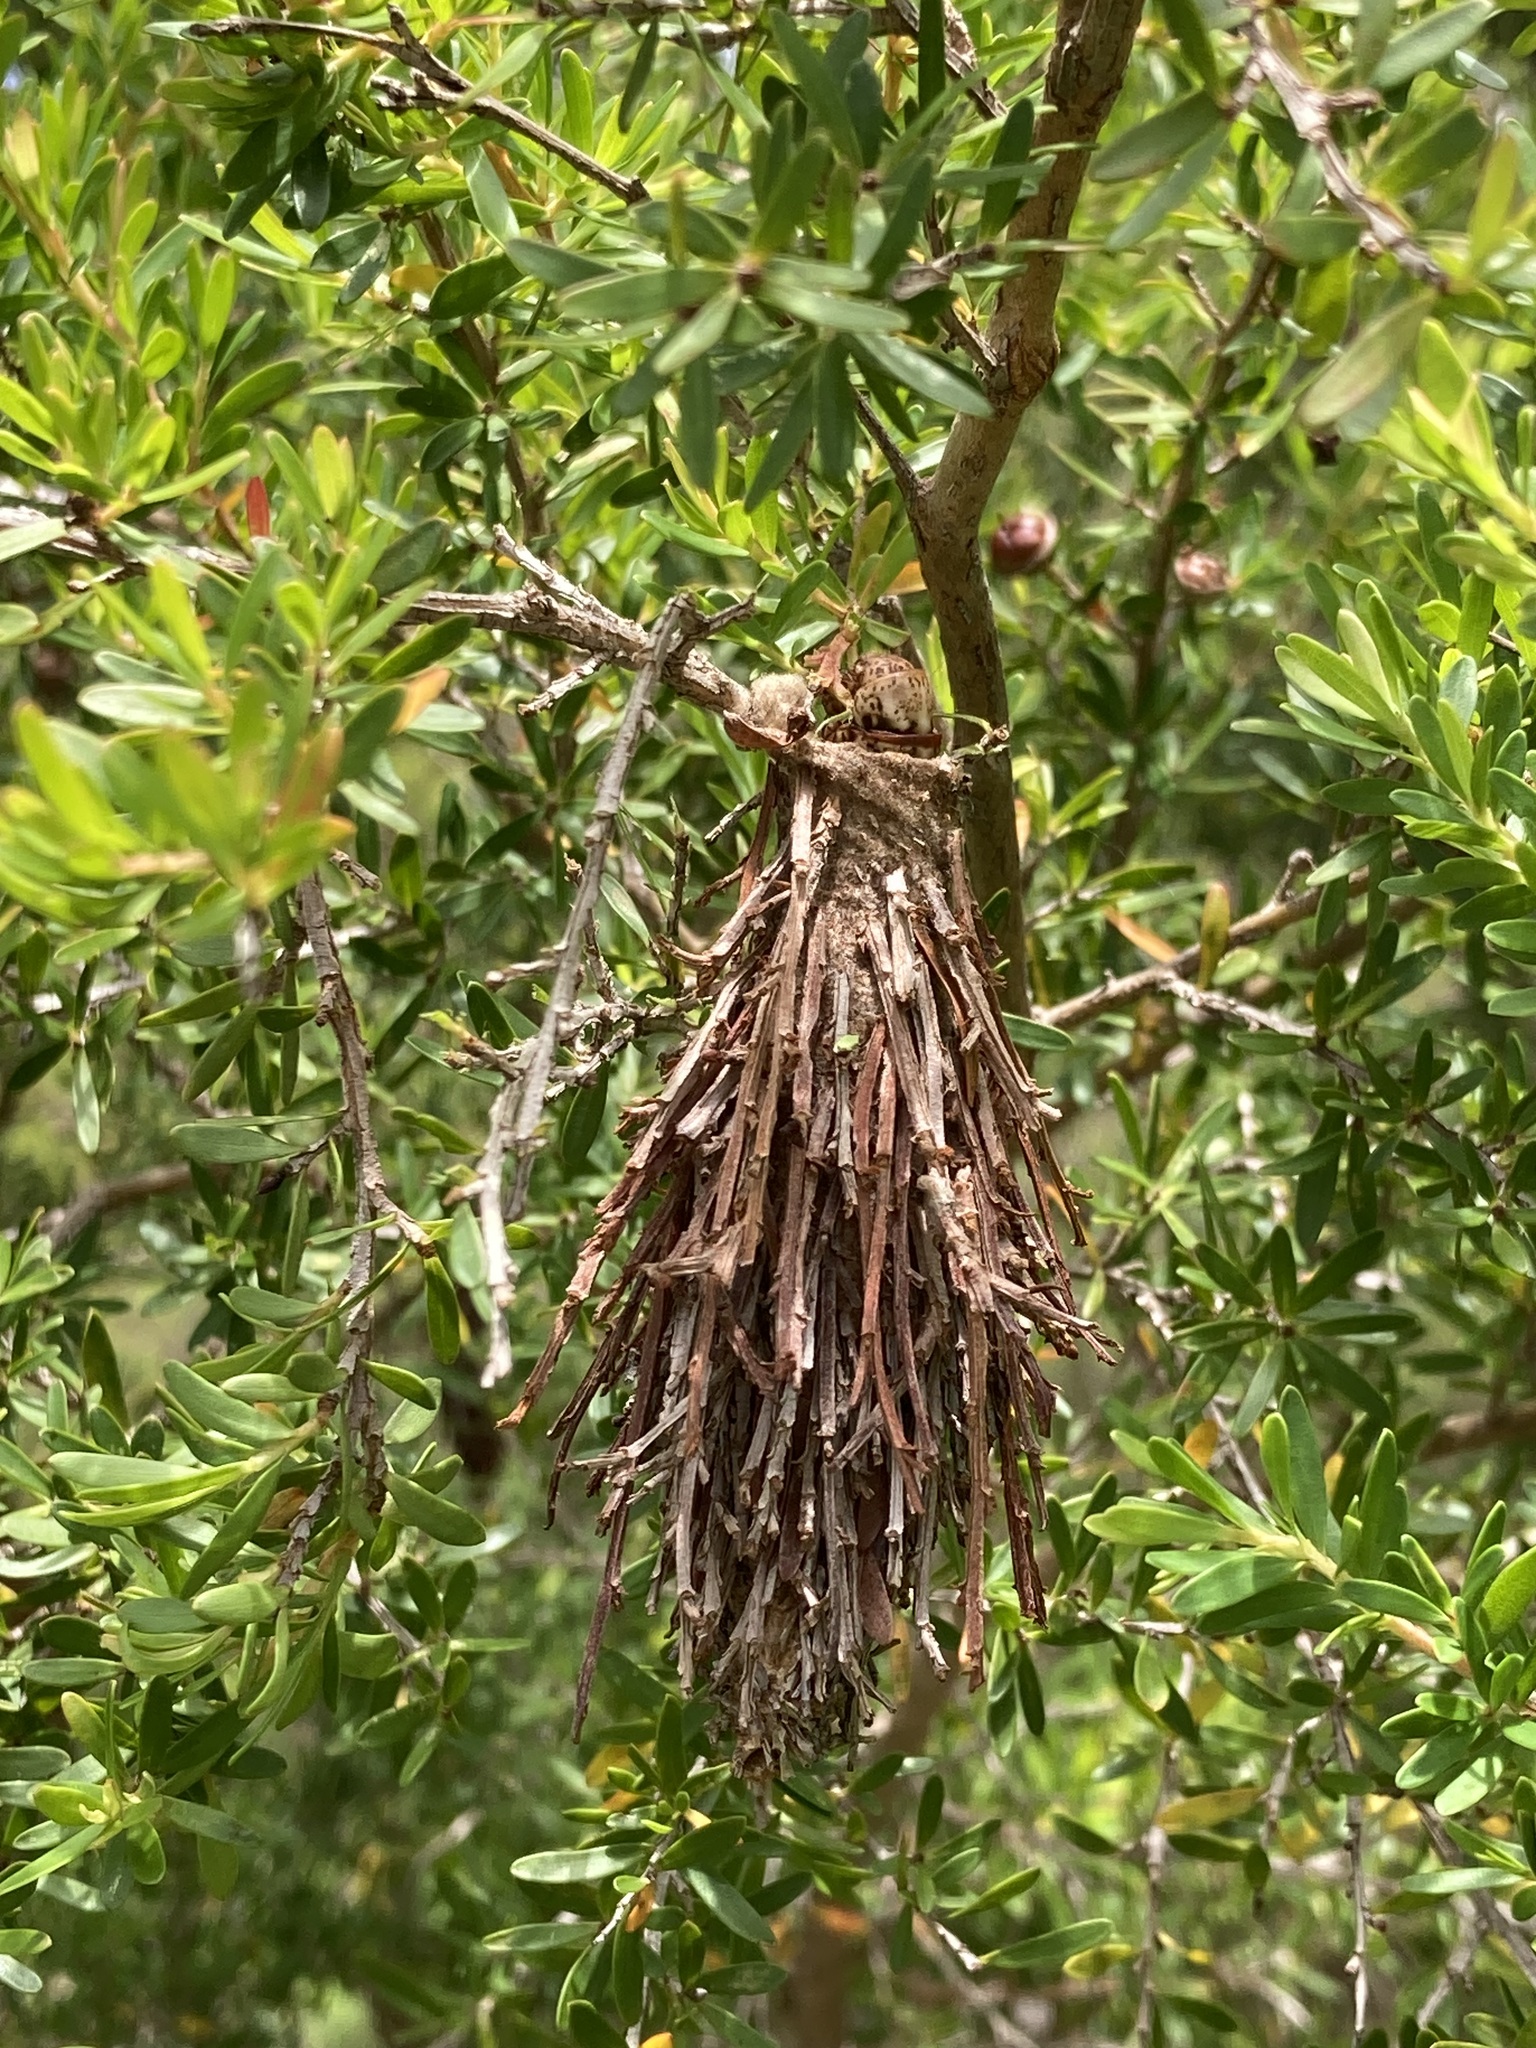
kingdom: Animalia
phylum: Arthropoda
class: Insecta
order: Lepidoptera
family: Psychidae
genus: Hyalarcta
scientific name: Hyalarcta huebneri
